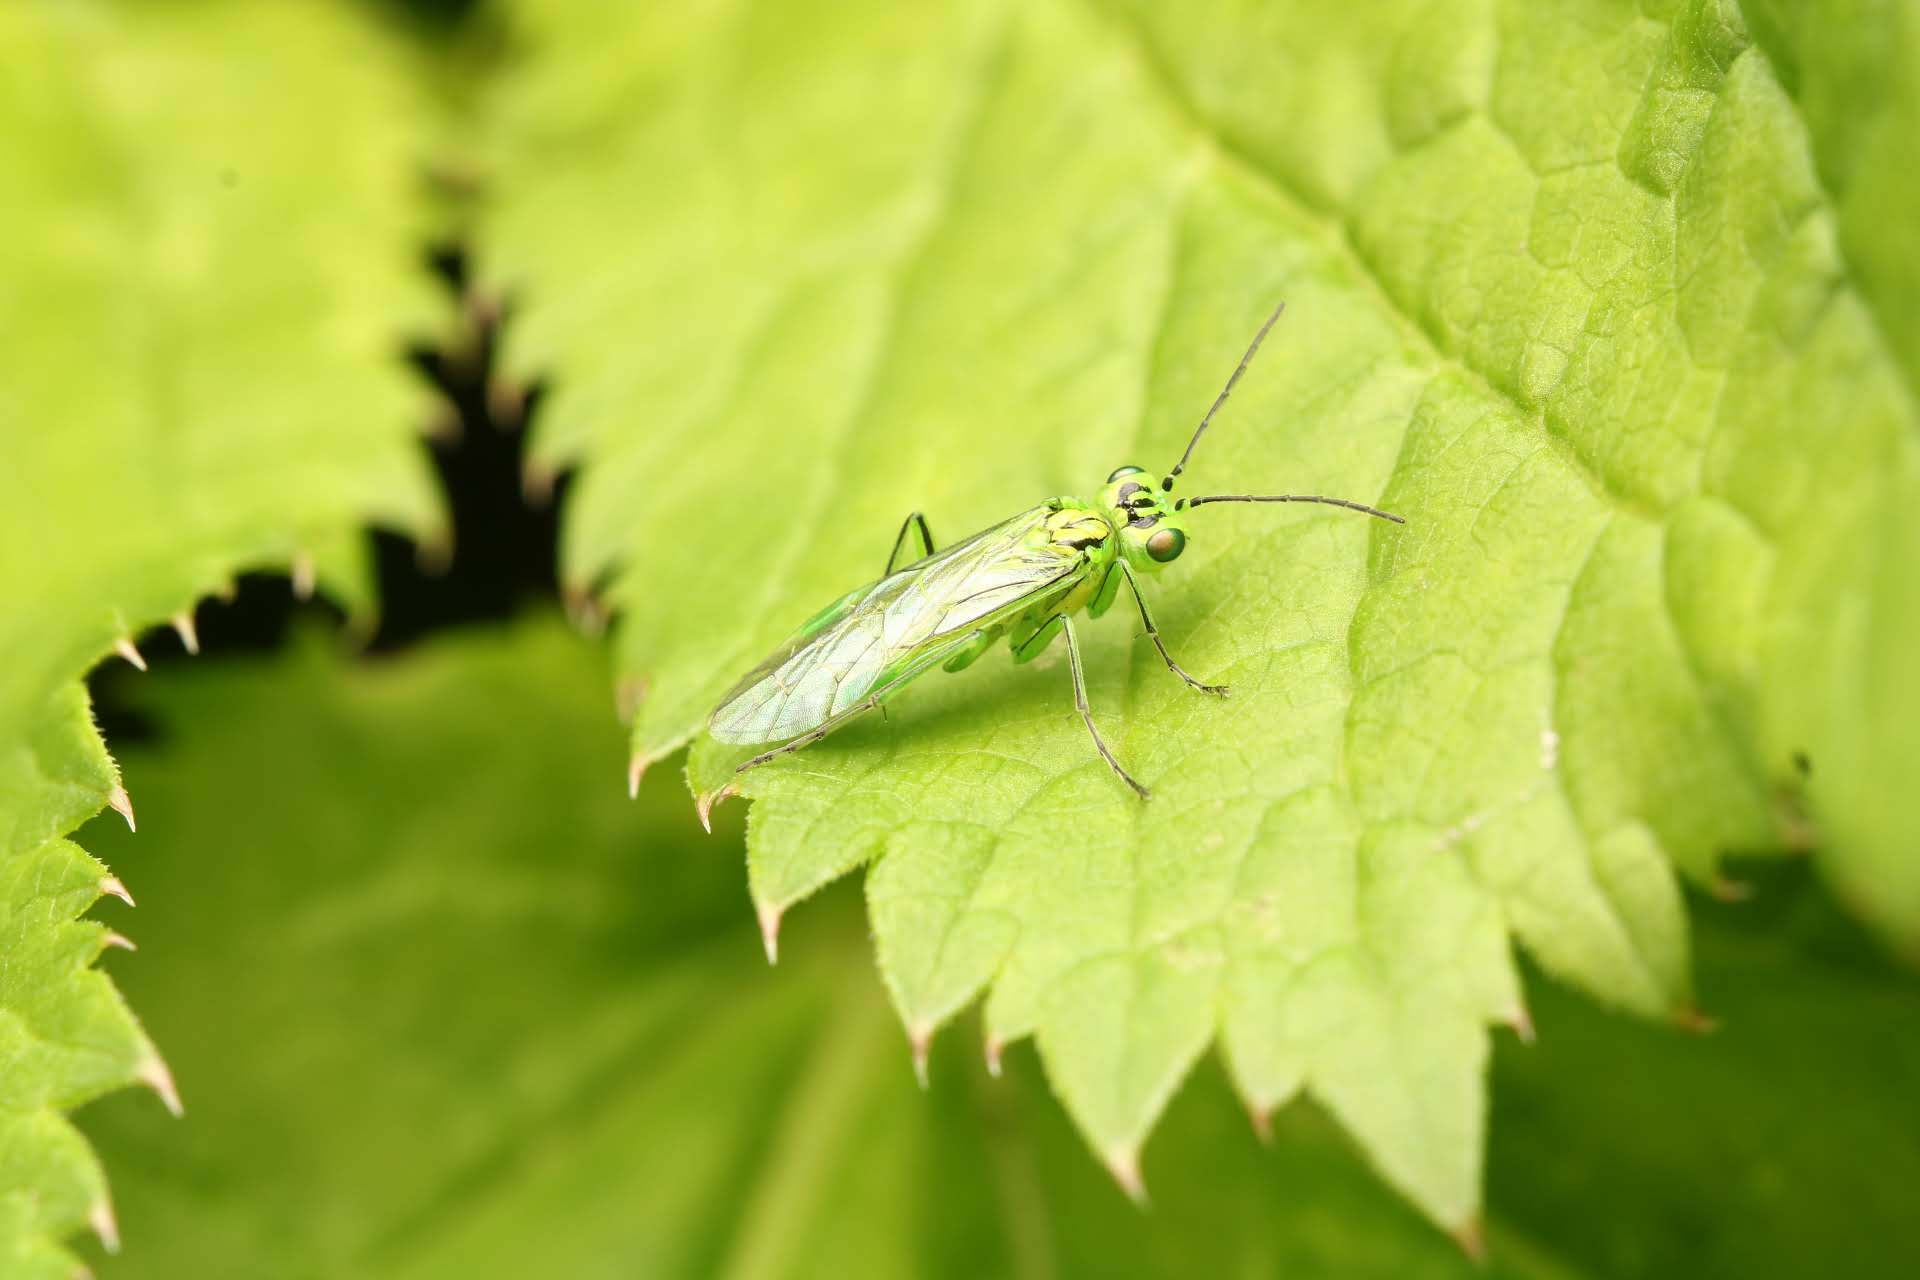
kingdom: Animalia
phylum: Arthropoda
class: Insecta
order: Hymenoptera
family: Tenthredinidae
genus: Rhogogaster
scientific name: Rhogogaster punctulata
